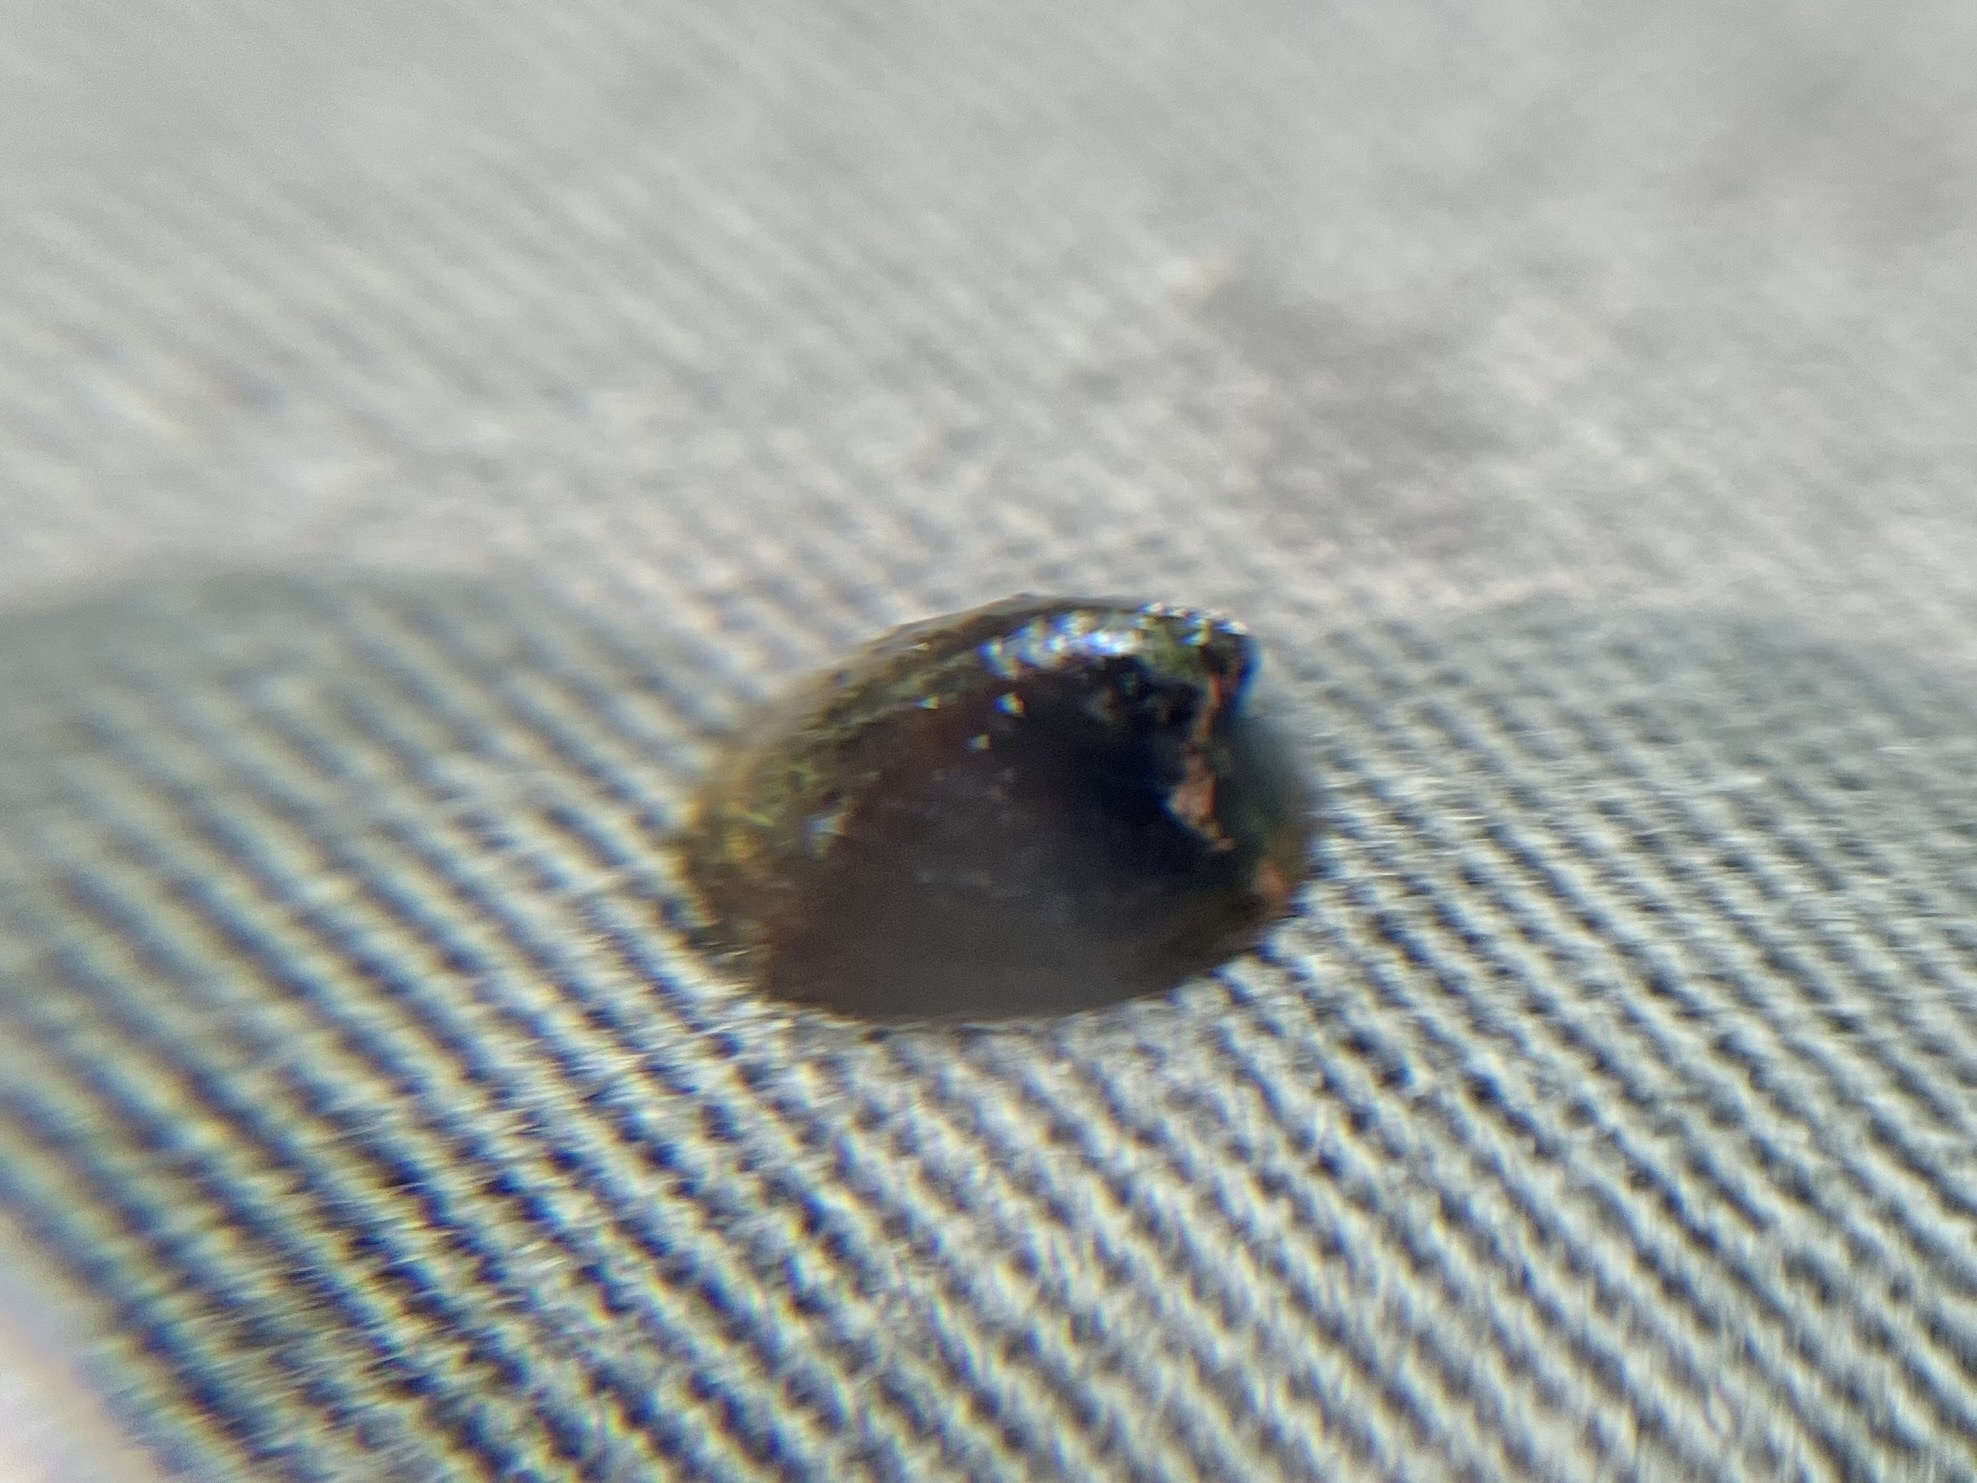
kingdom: Animalia
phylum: Mollusca
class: Gastropoda
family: Planorbidae
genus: Ancylus
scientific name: Ancylus fluviatilis
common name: River limpet
